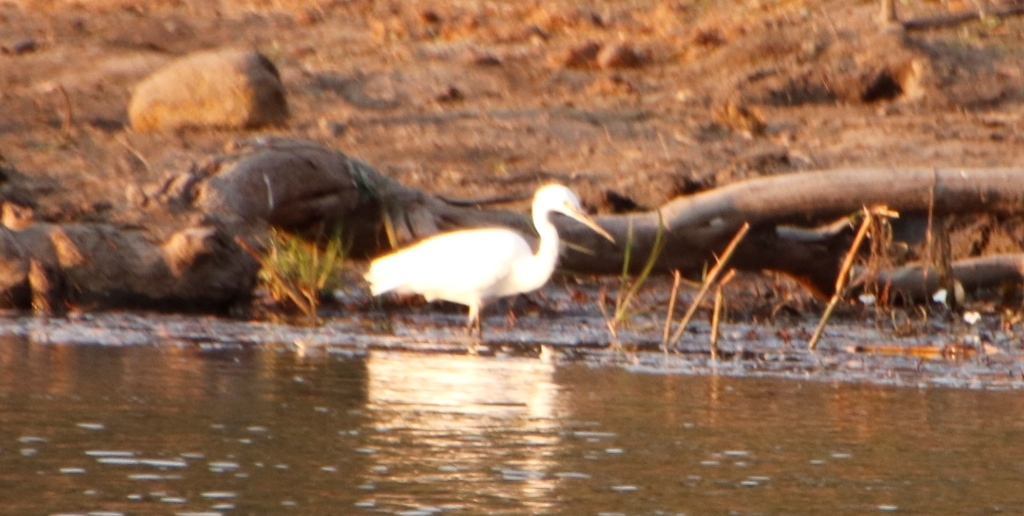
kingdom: Animalia
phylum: Chordata
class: Aves
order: Pelecaniformes
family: Ardeidae
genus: Egretta
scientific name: Egretta garzetta
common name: Little egret
